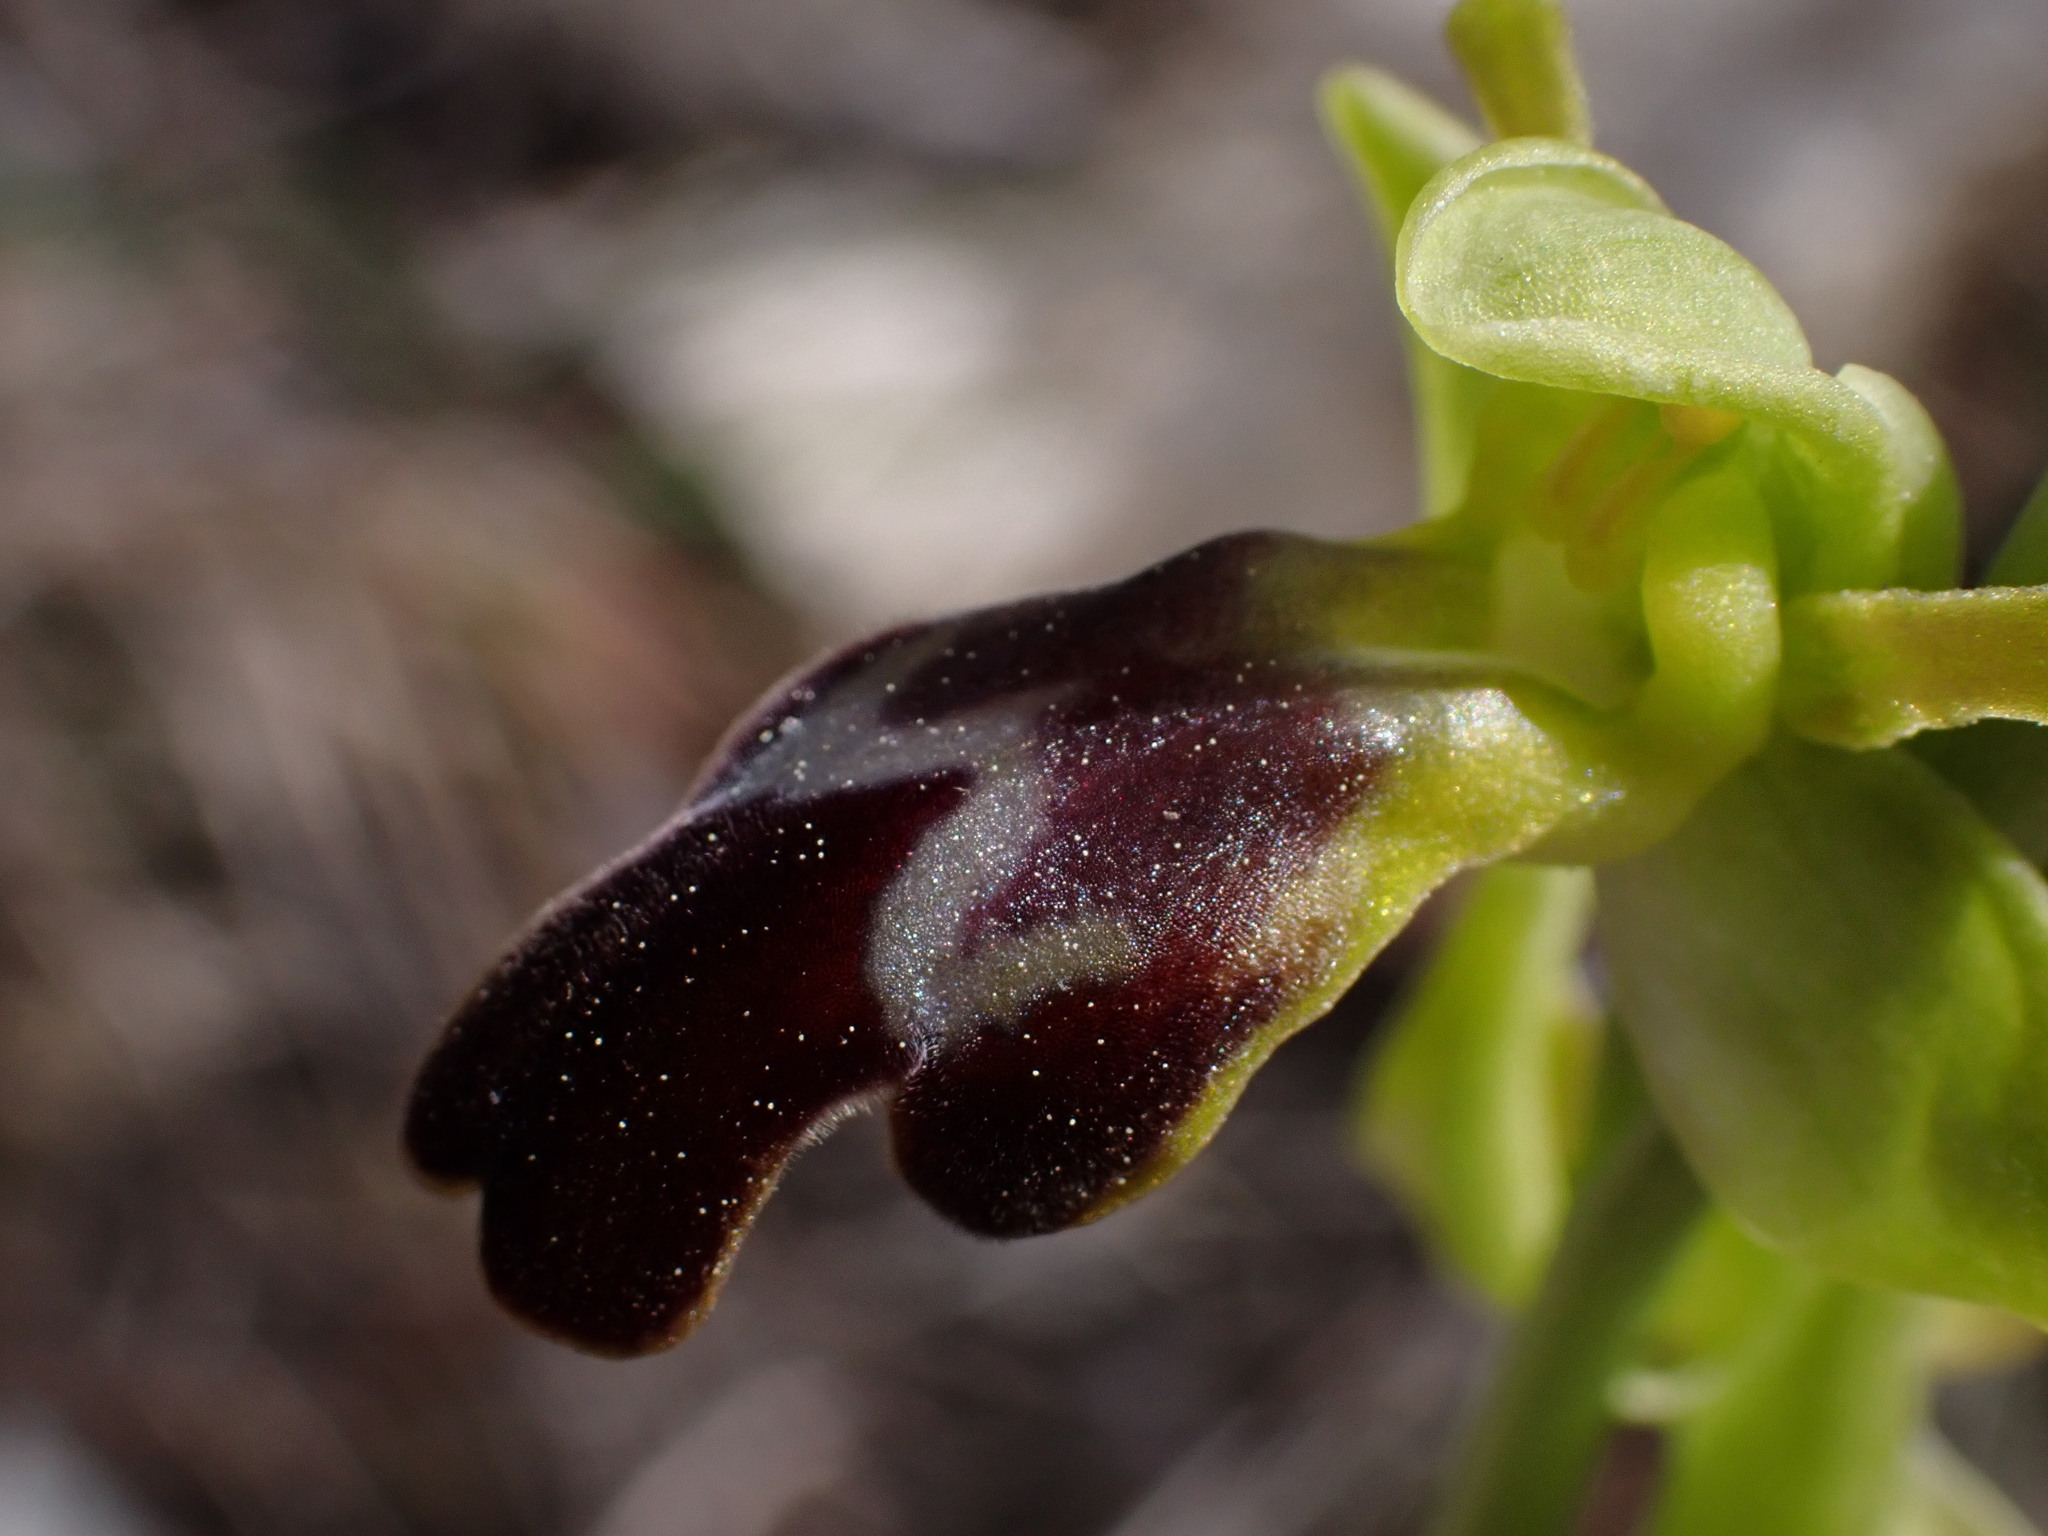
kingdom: Plantae
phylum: Tracheophyta
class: Liliopsida
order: Asparagales
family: Orchidaceae
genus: Ophrys
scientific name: Ophrys fusca
